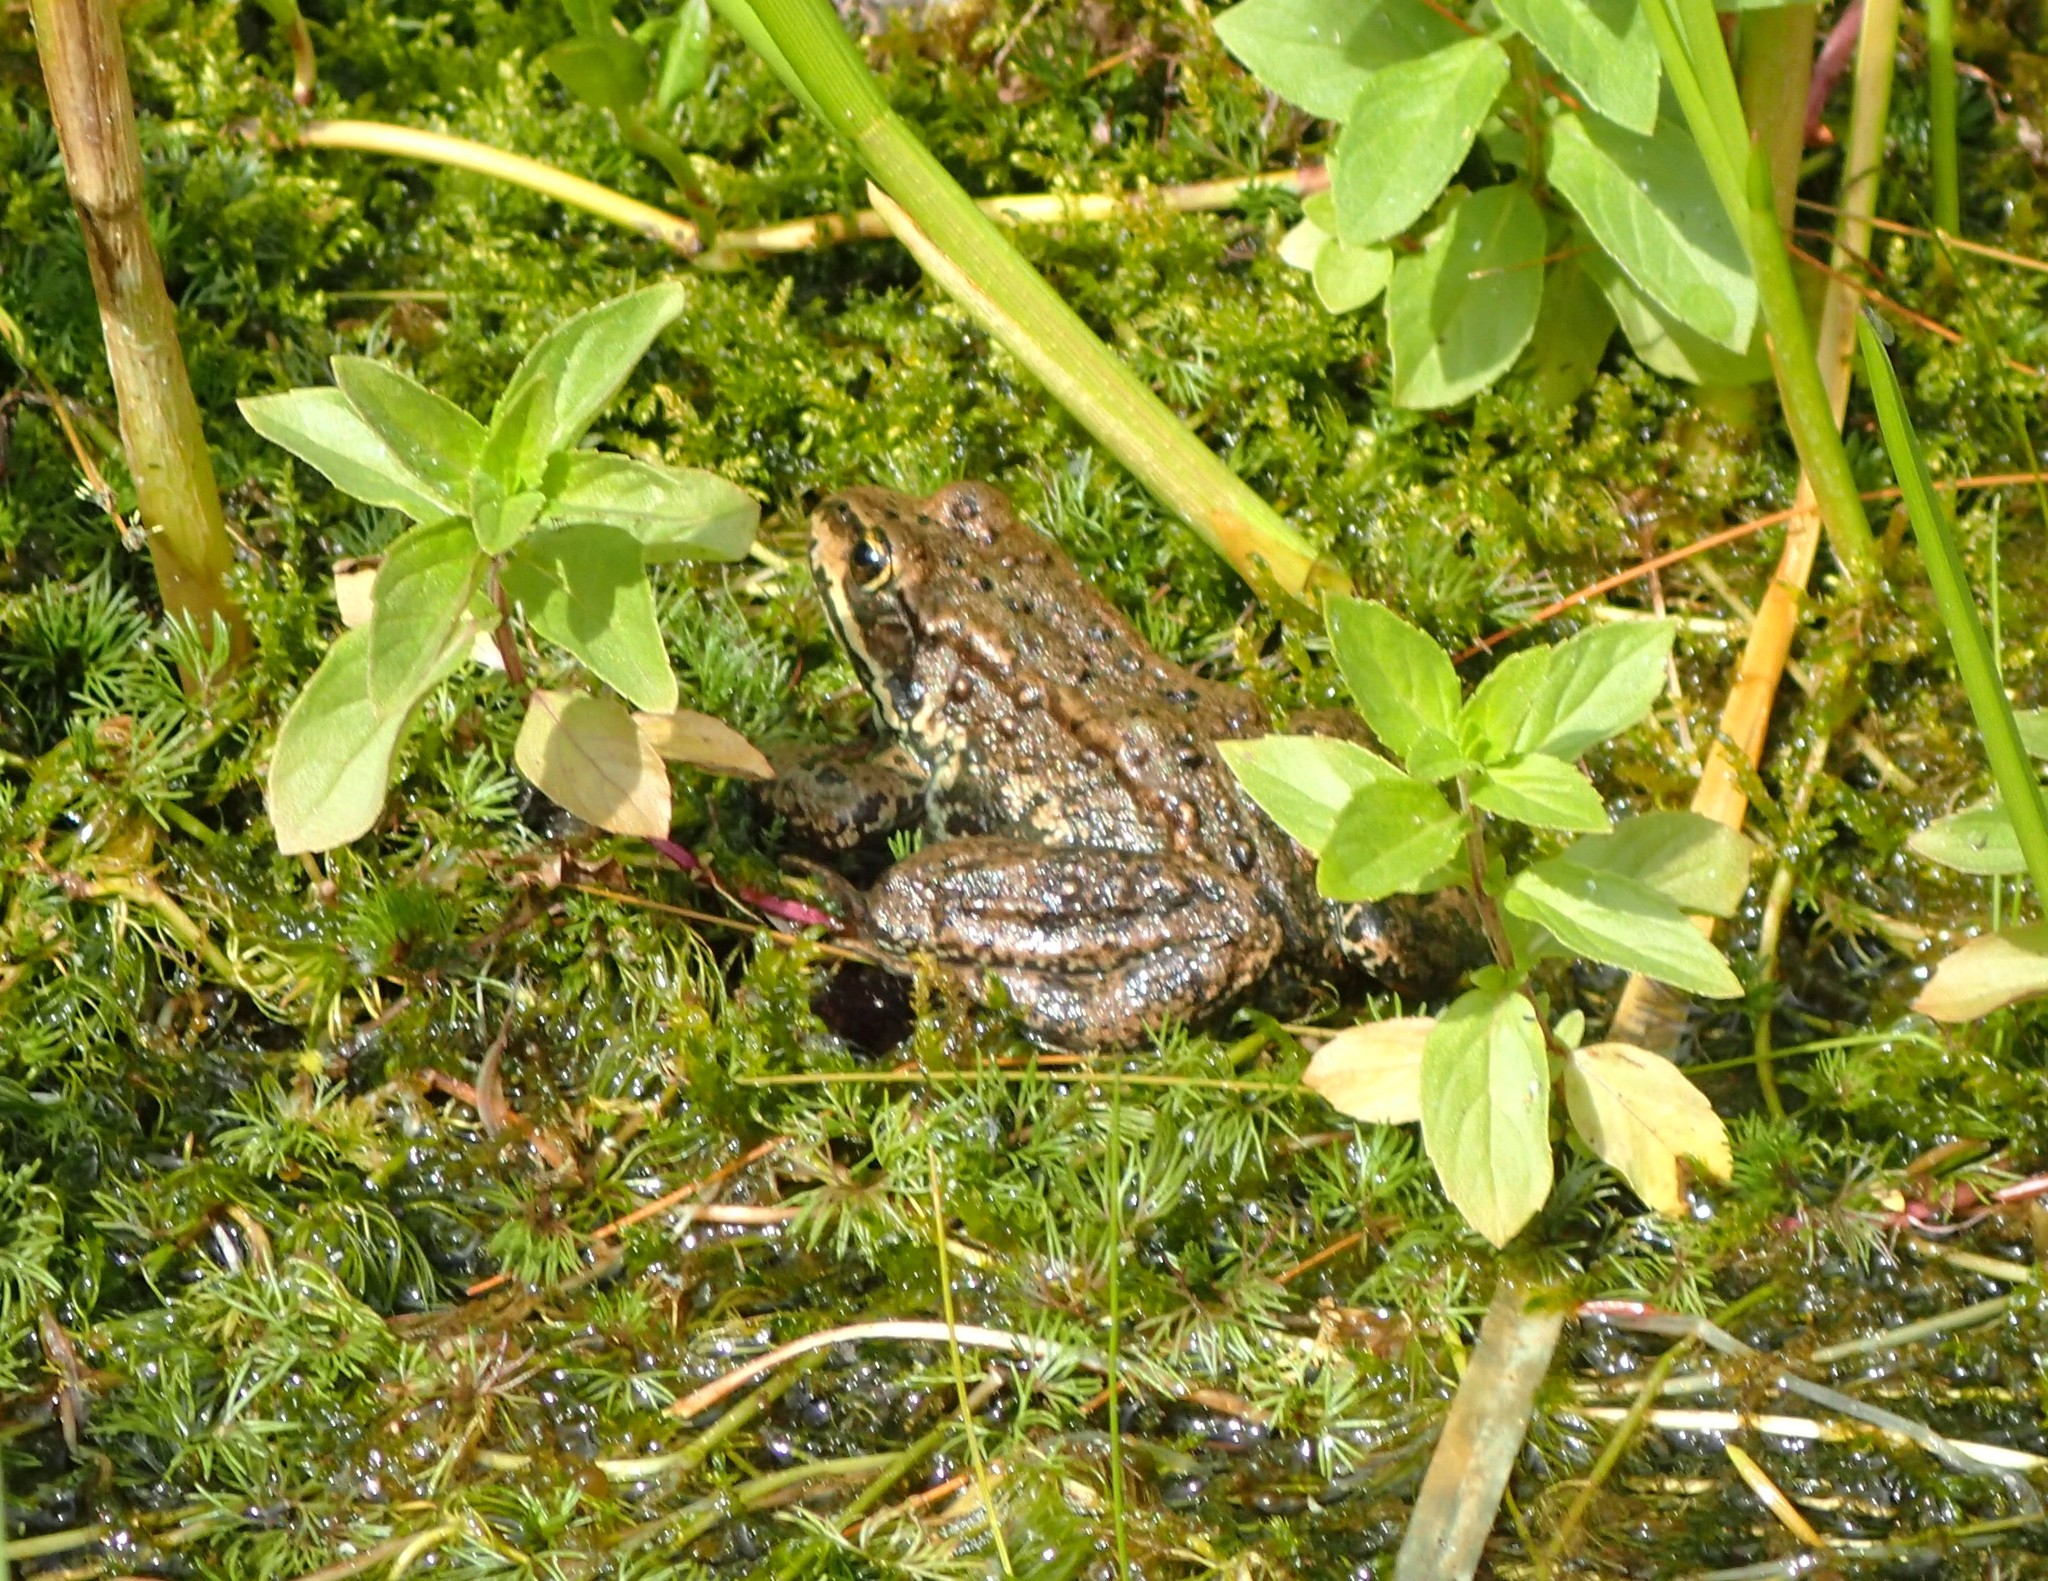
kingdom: Animalia
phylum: Chordata
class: Amphibia
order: Anura
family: Ranidae
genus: Rana
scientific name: Rana luteiventris
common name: Columbia spotted frog
